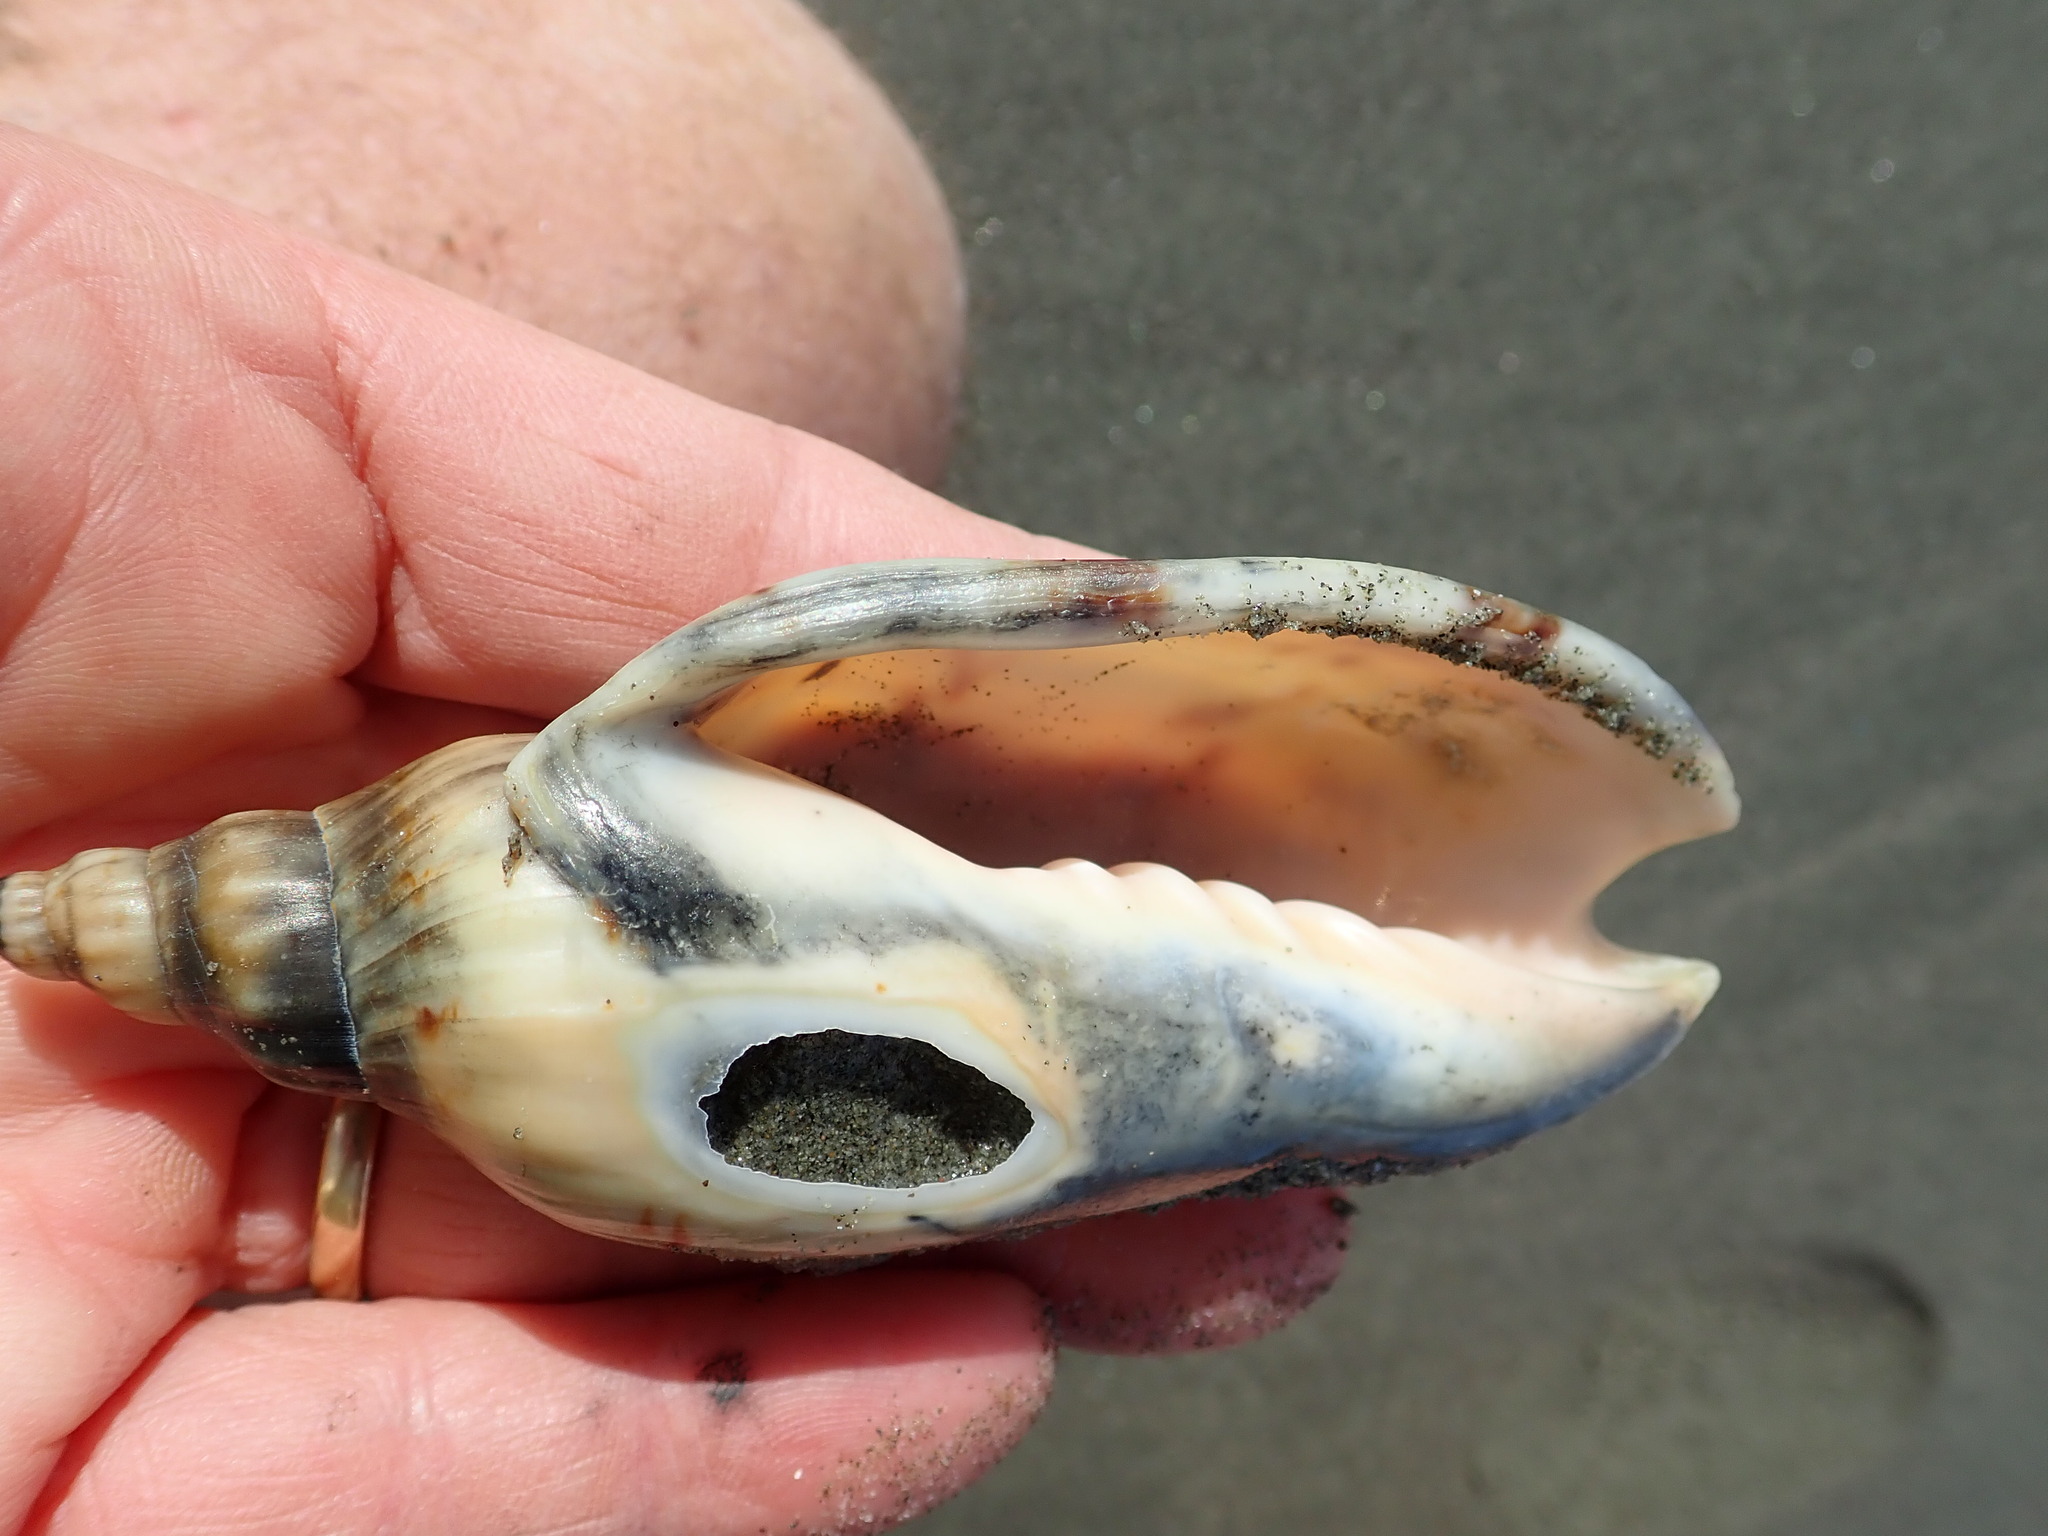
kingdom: Animalia
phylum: Mollusca
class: Gastropoda
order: Neogastropoda
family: Volutidae
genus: Alcithoe
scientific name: Alcithoe arabica
